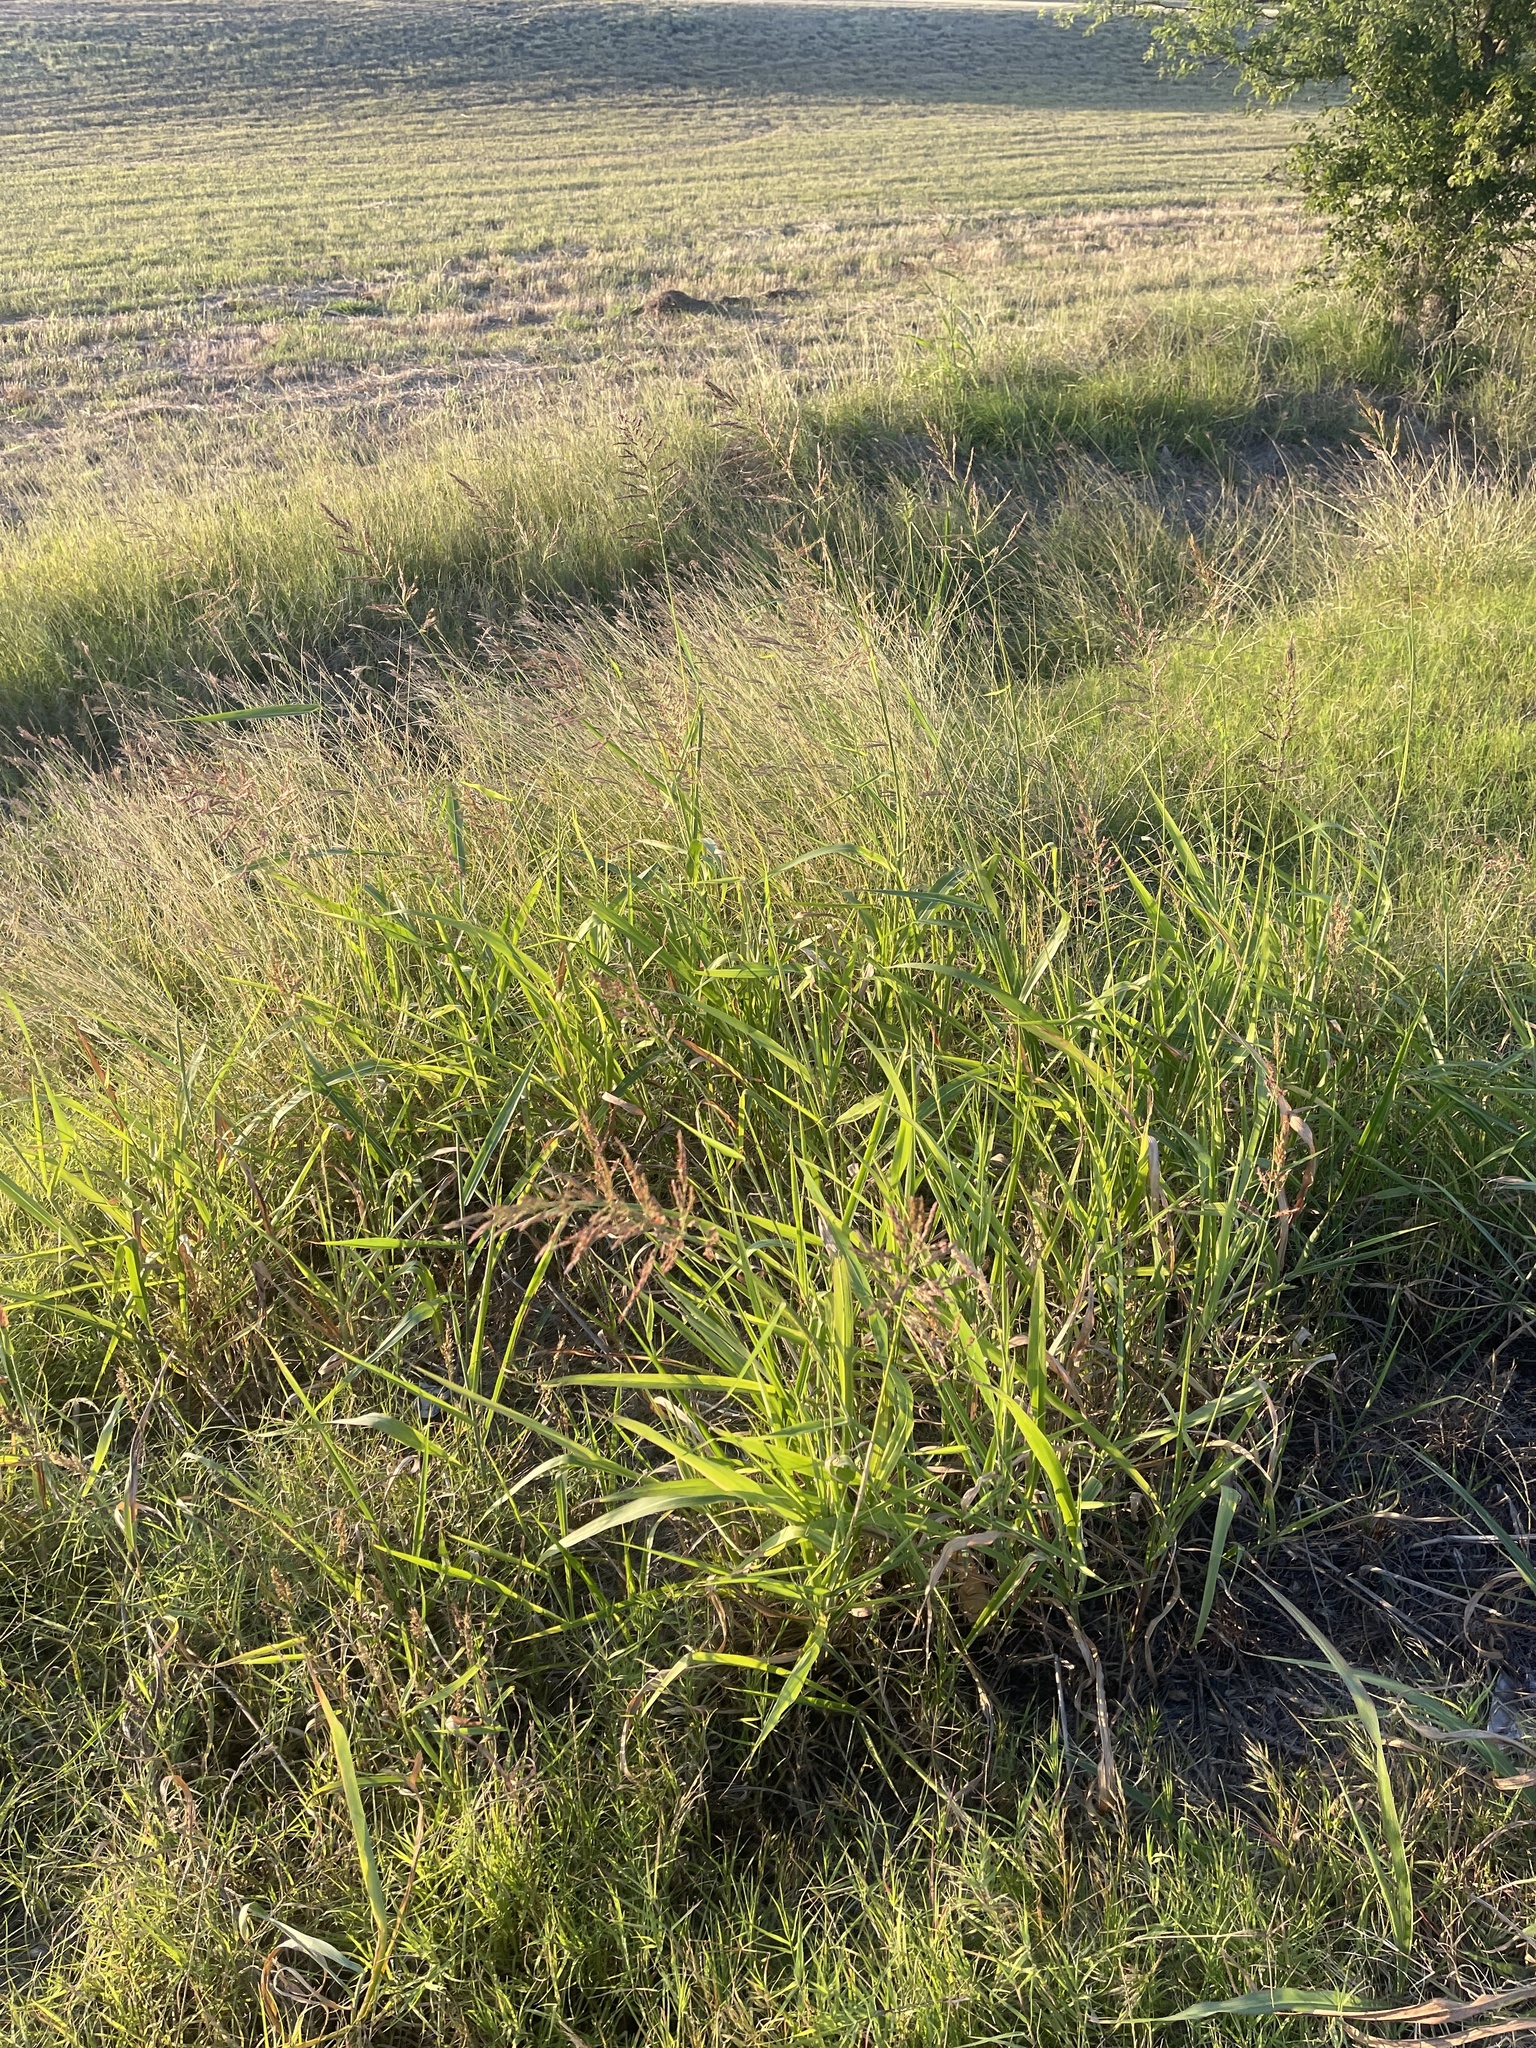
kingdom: Plantae
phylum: Tracheophyta
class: Liliopsida
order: Poales
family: Poaceae
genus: Sorghum
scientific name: Sorghum halepense
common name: Johnson-grass
